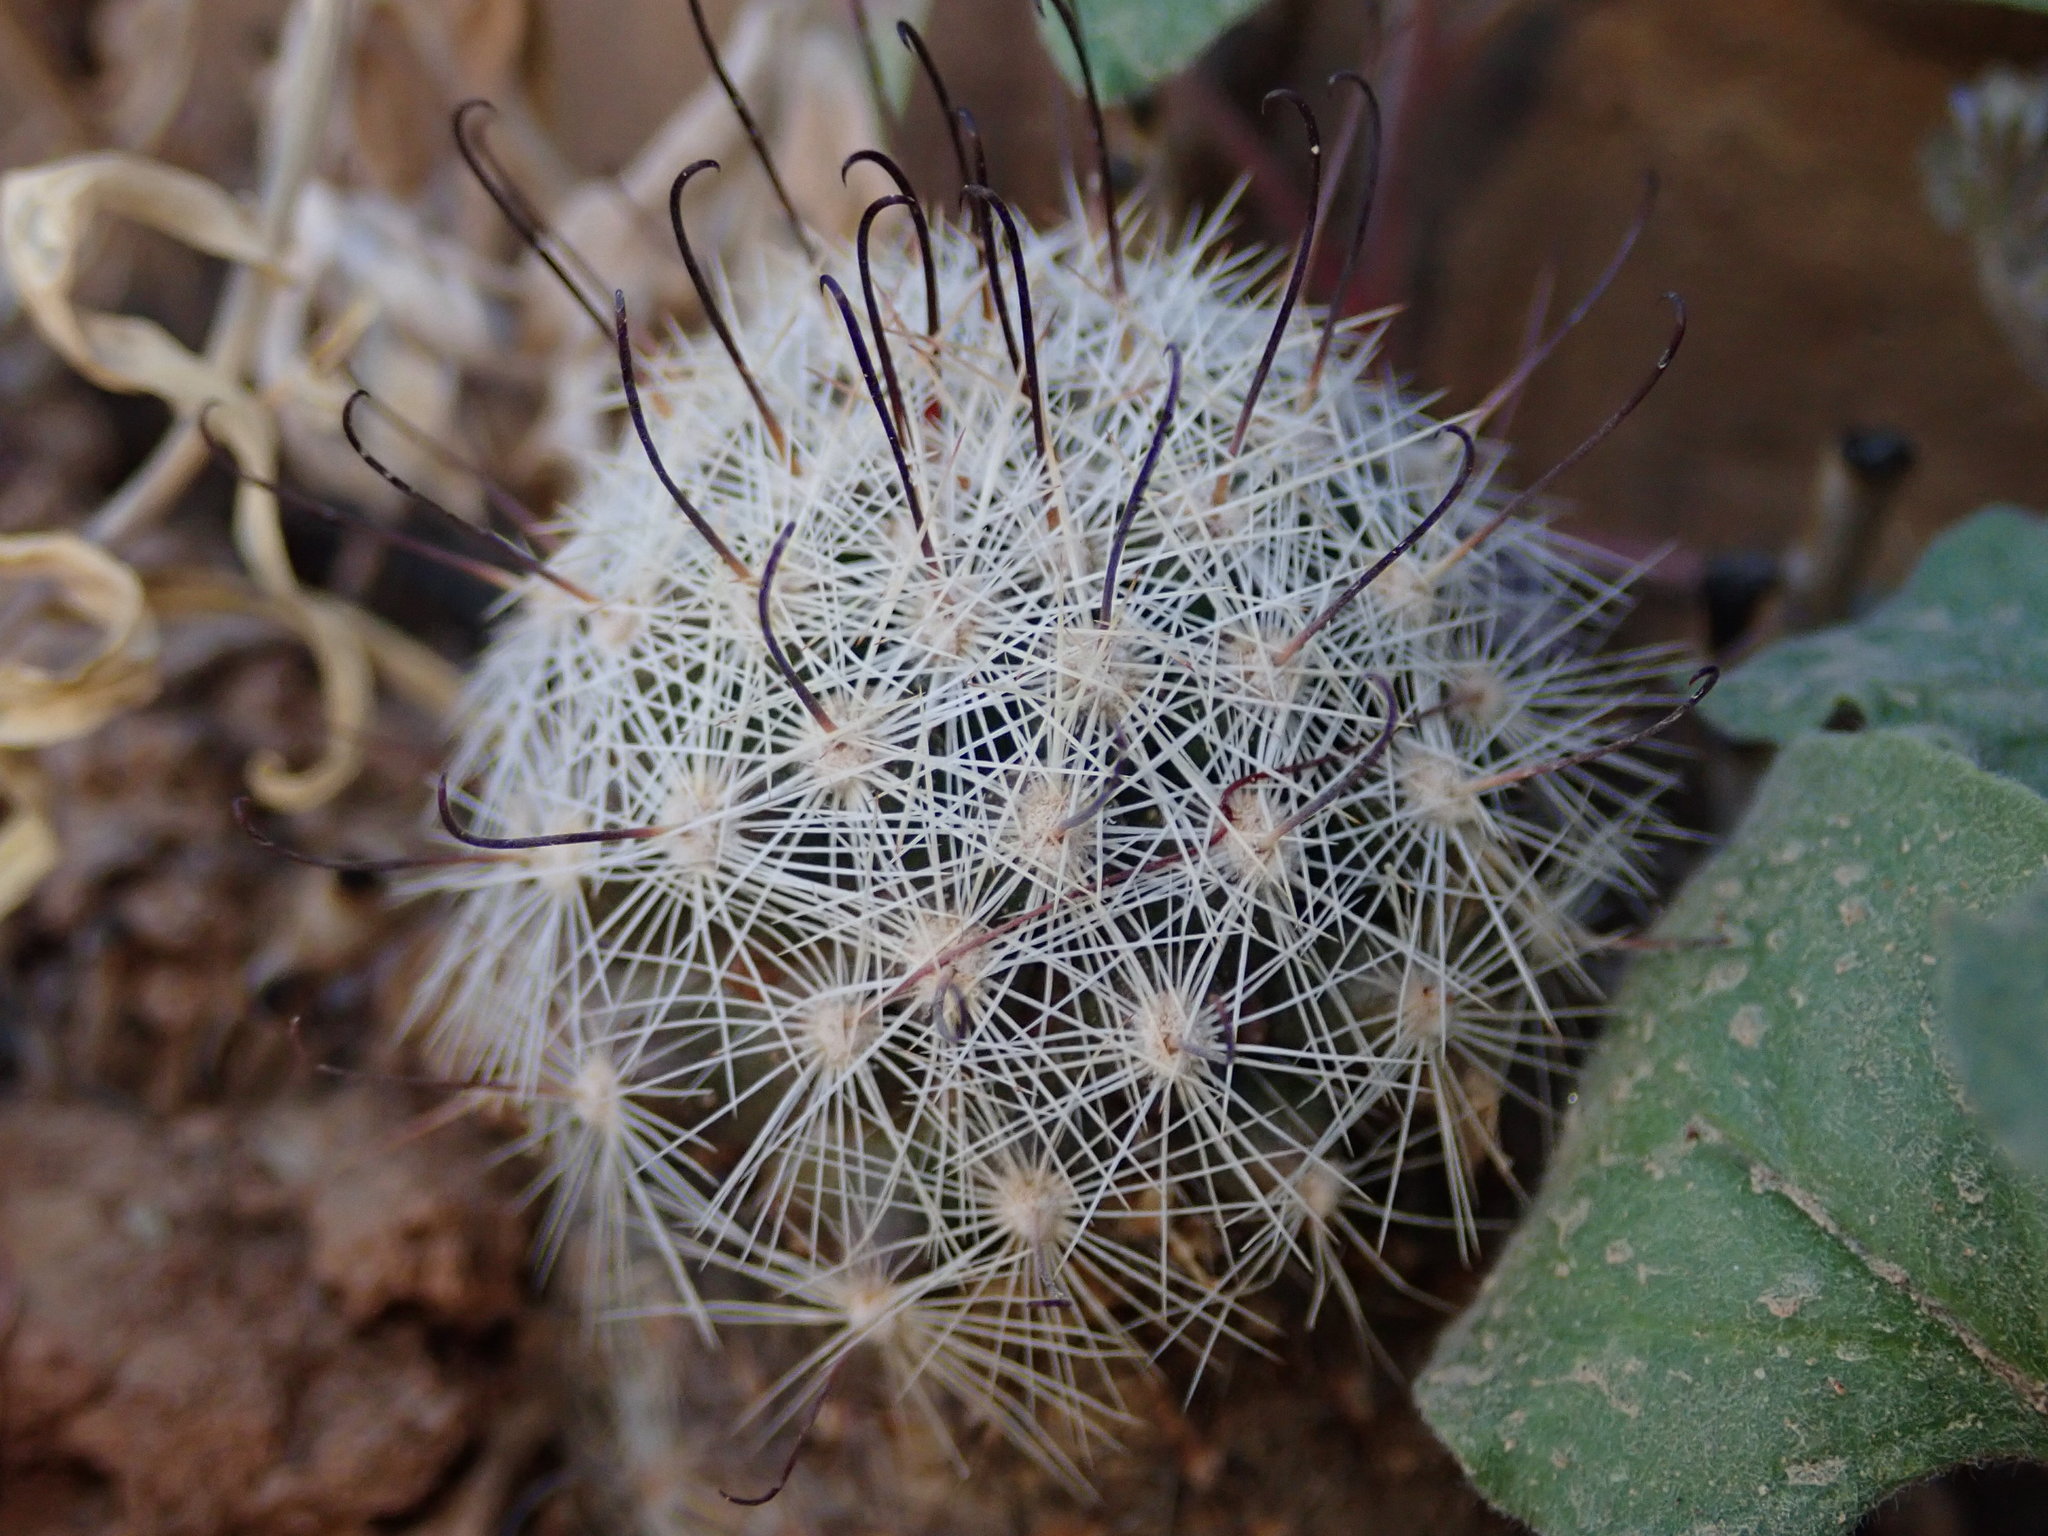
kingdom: Plantae
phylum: Tracheophyta
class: Magnoliopsida
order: Caryophyllales
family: Cactaceae
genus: Cochemiea
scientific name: Cochemiea grahamii
